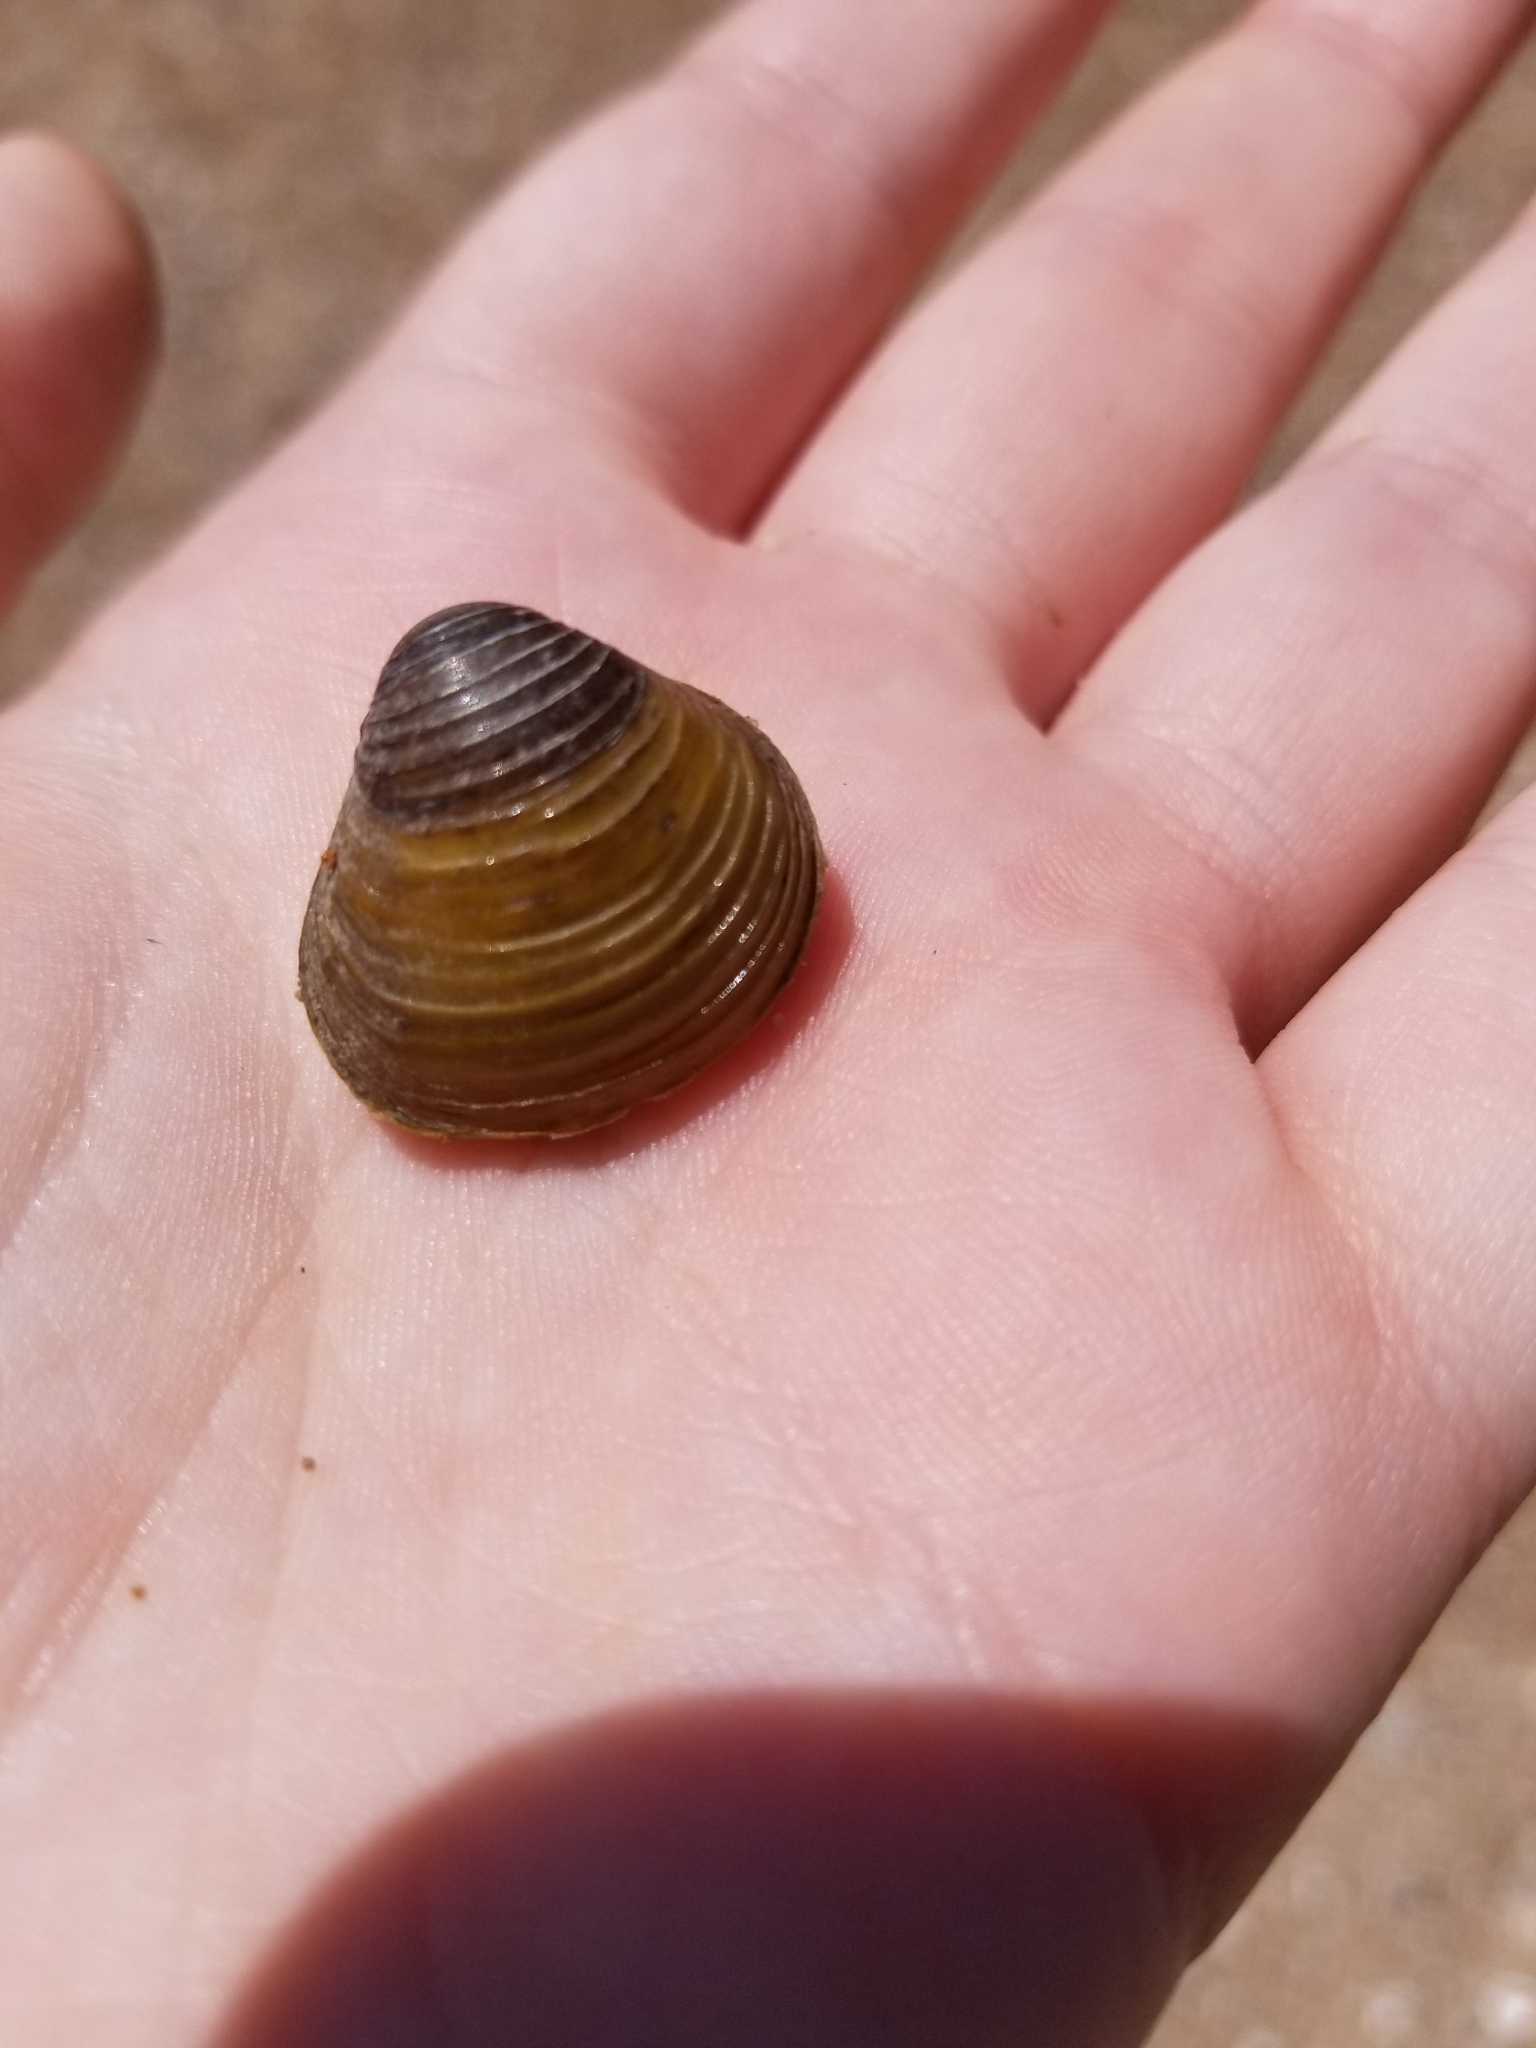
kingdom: Animalia
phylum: Mollusca
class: Bivalvia
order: Venerida
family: Cyrenidae
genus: Corbicula
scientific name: Corbicula fluminea
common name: Asian clam
